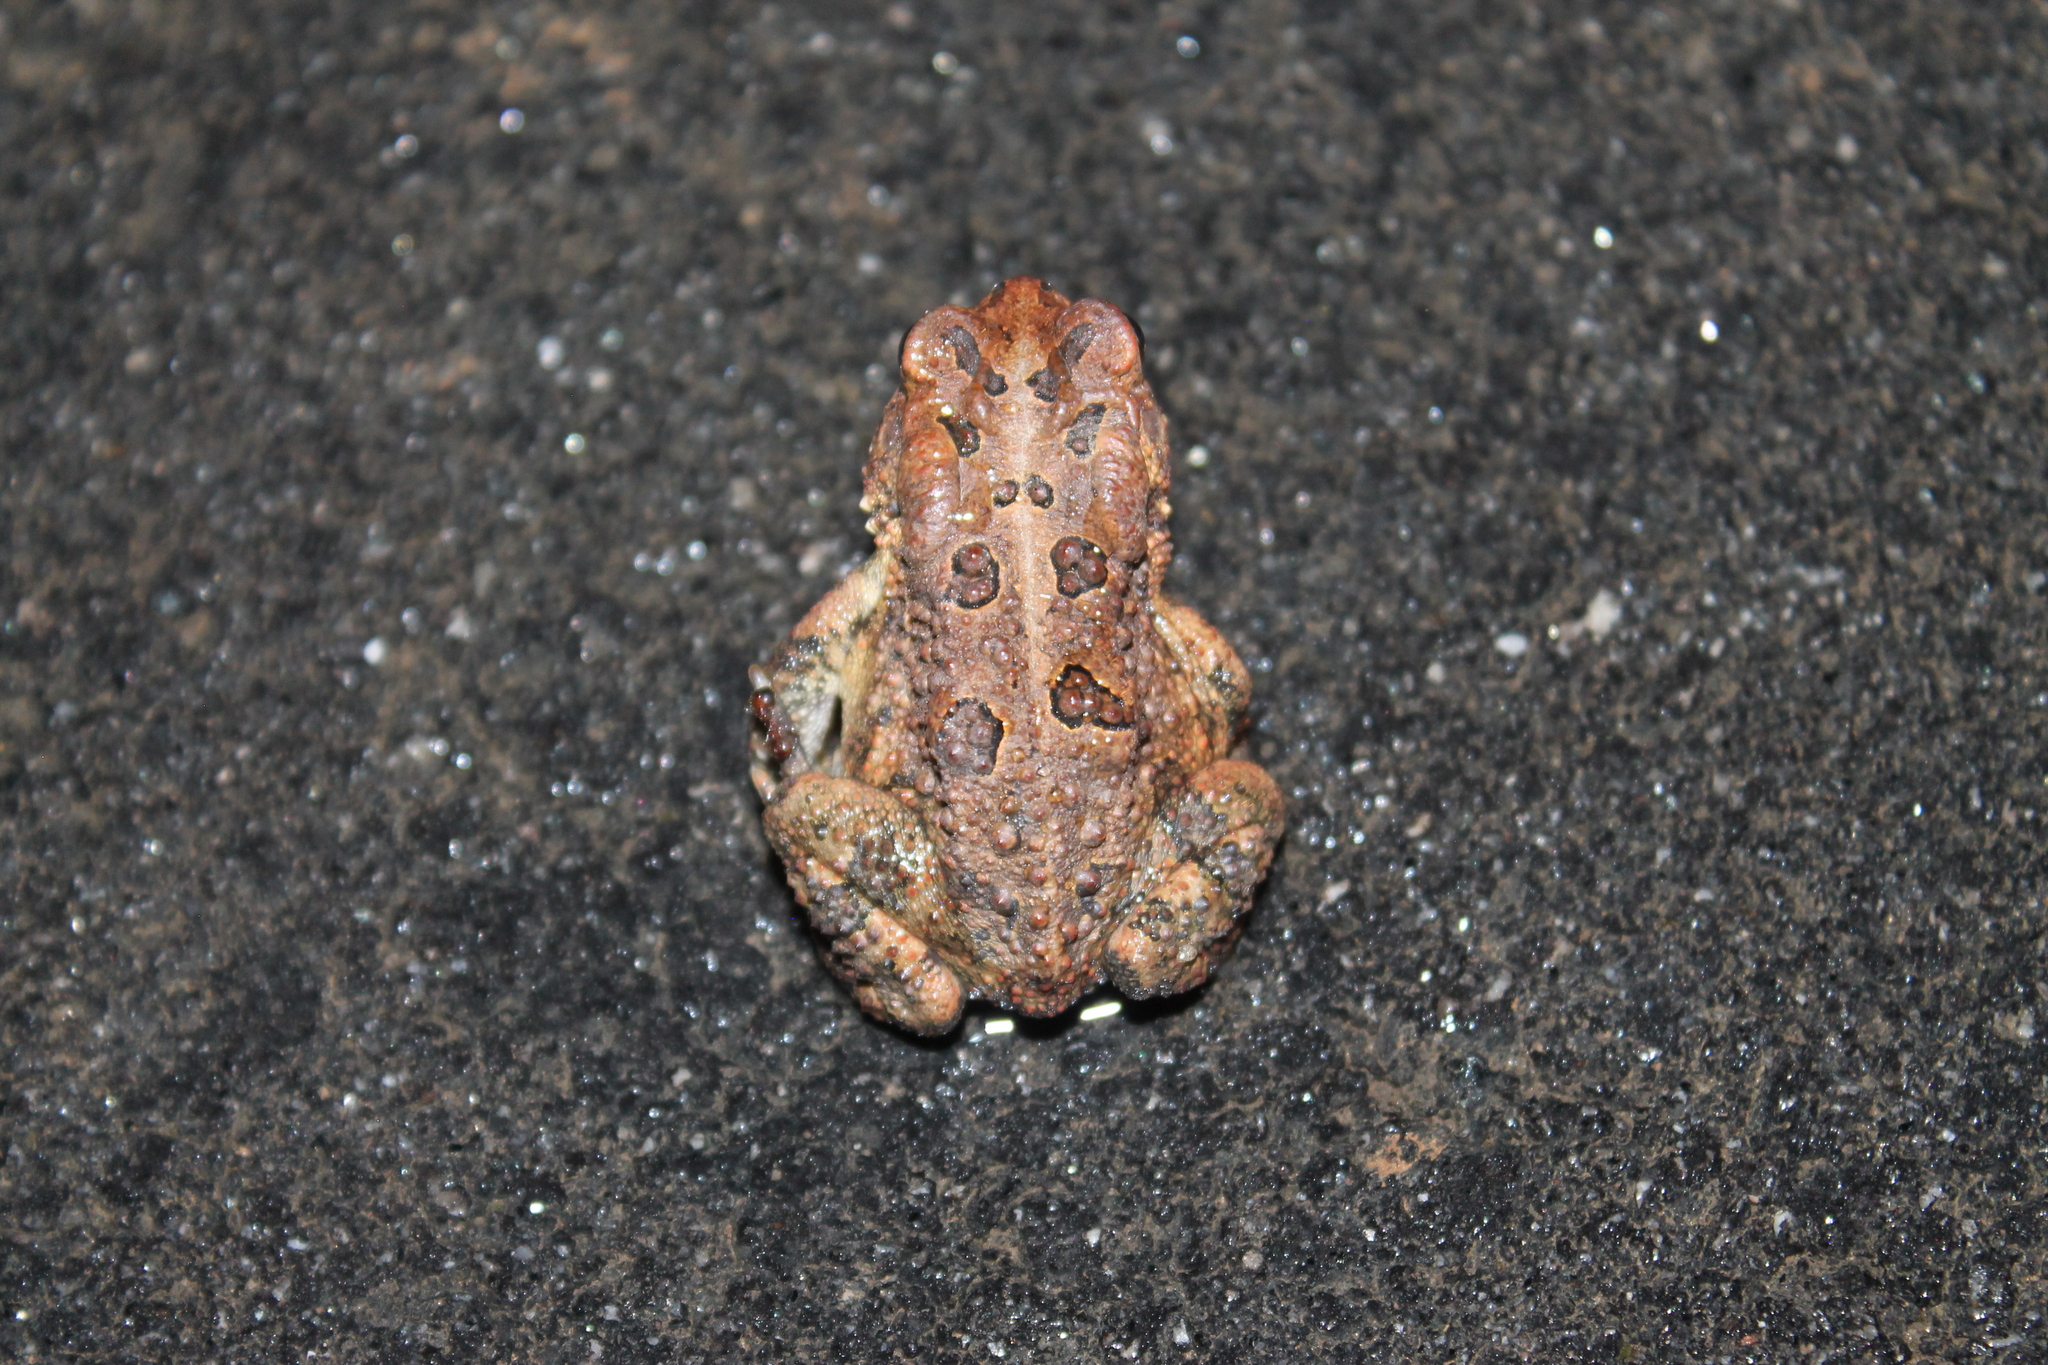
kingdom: Animalia
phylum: Chordata
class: Amphibia
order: Anura
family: Bufonidae
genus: Anaxyrus
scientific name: Anaxyrus terrestris
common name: Southern toad
